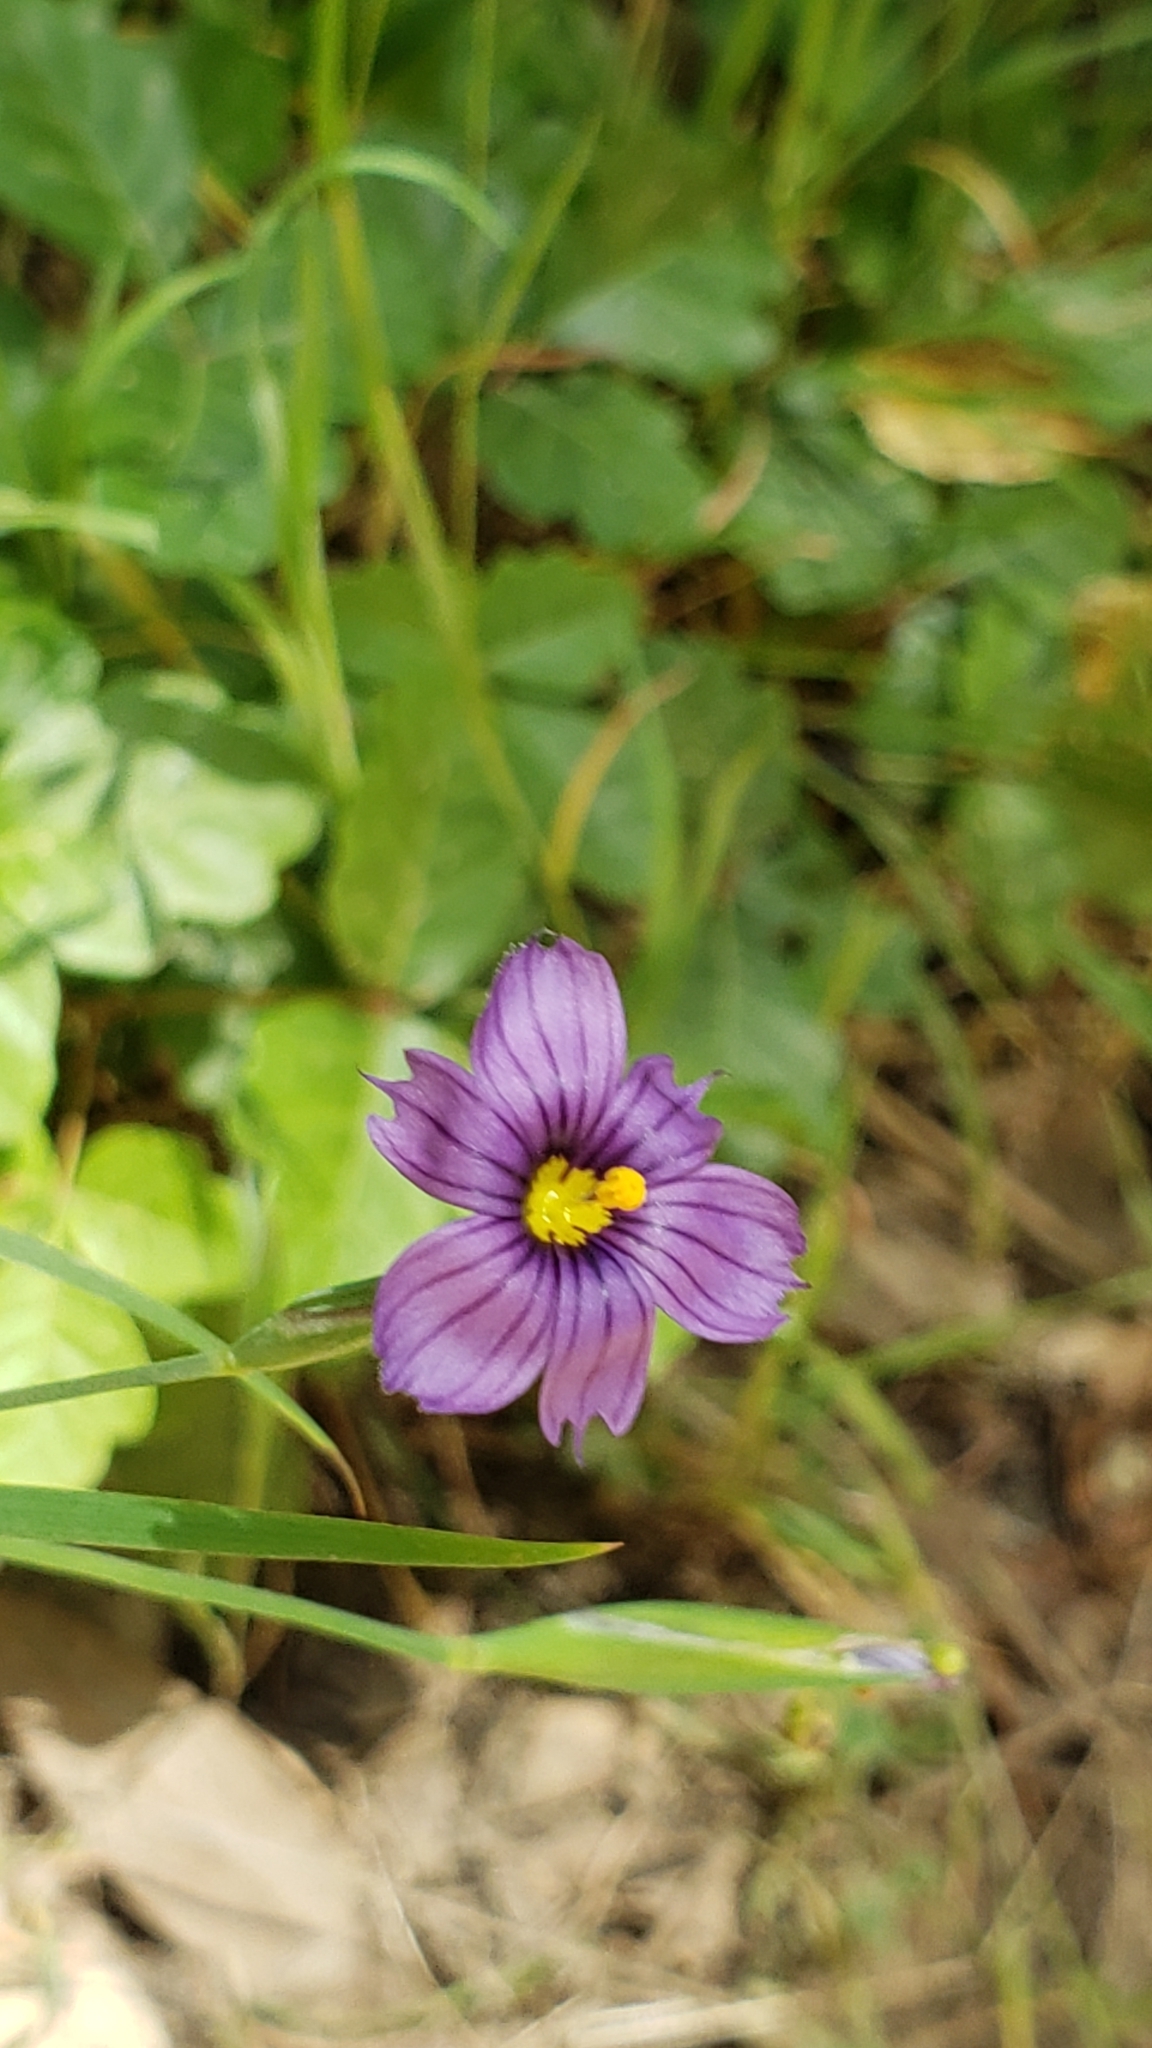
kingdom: Plantae
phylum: Tracheophyta
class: Liliopsida
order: Asparagales
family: Iridaceae
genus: Sisyrinchium
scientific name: Sisyrinchium bellum
